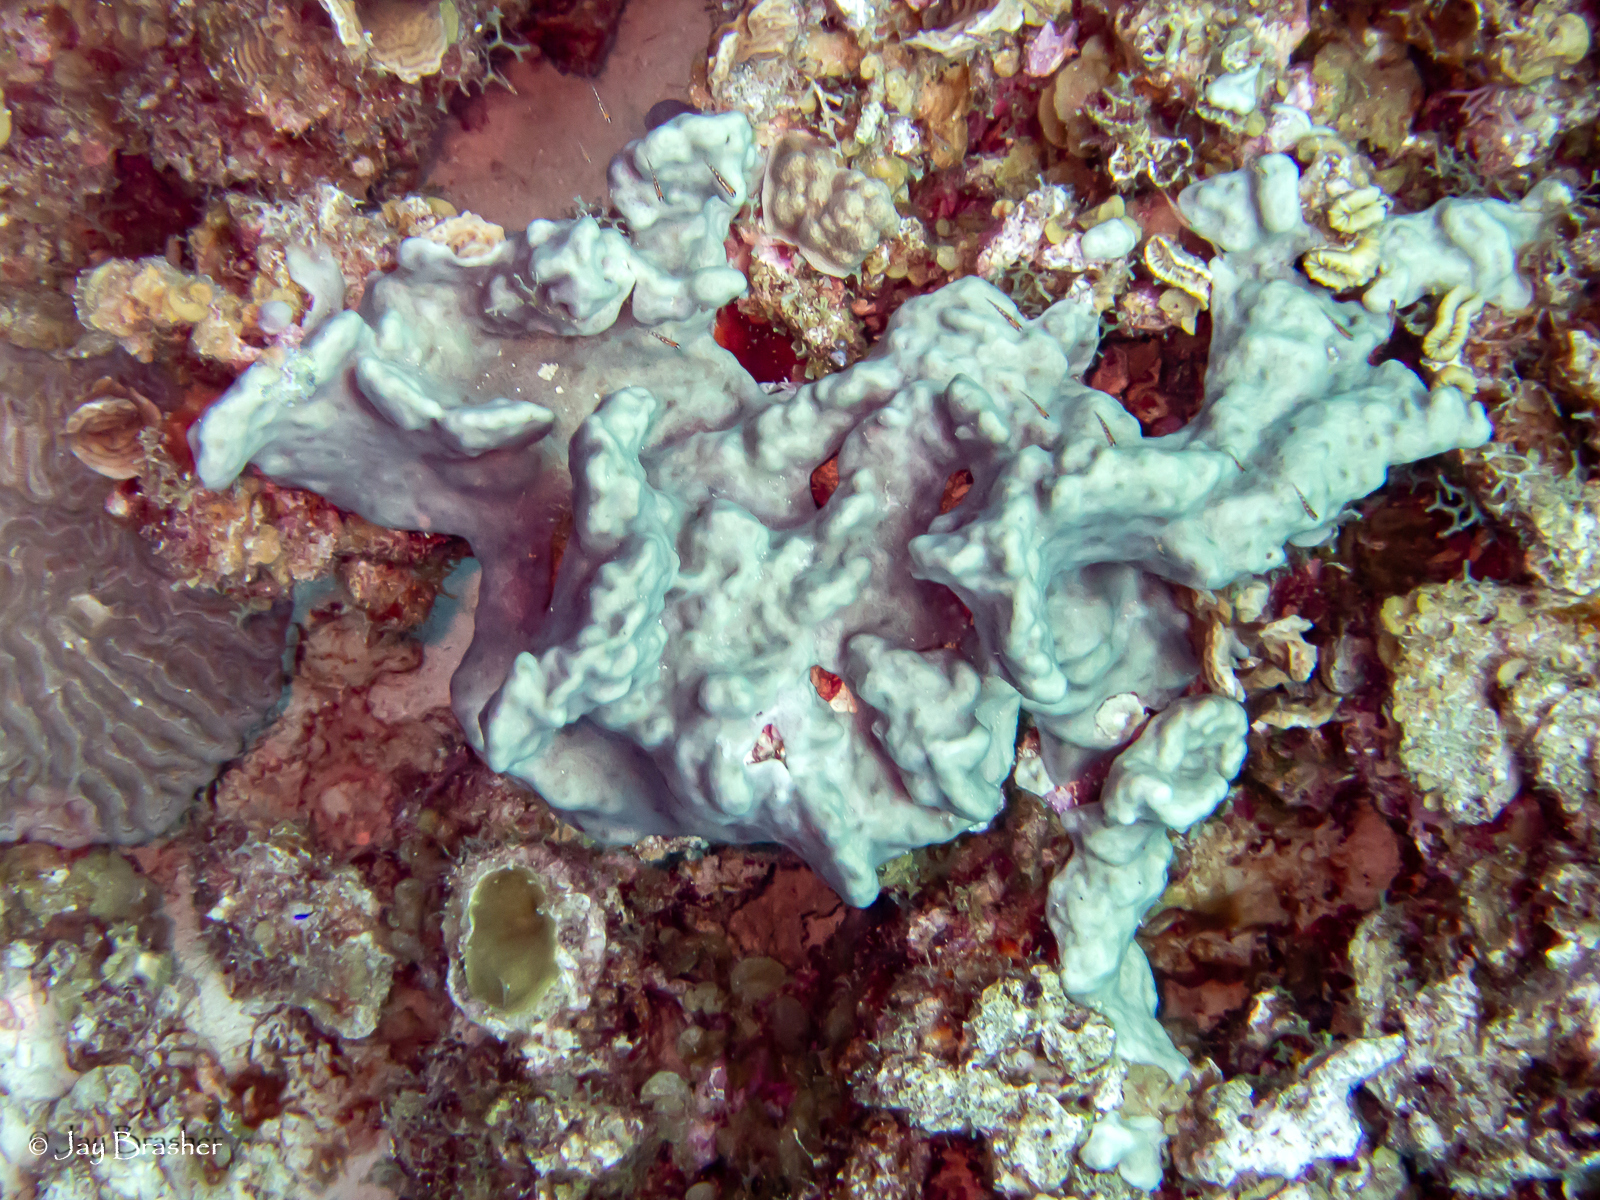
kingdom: Animalia
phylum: Chordata
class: Ascidiacea
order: Aplousobranchia
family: Didemnidae
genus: Trididemnum
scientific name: Trididemnum solidum
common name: Overgrowing mat tunicate
